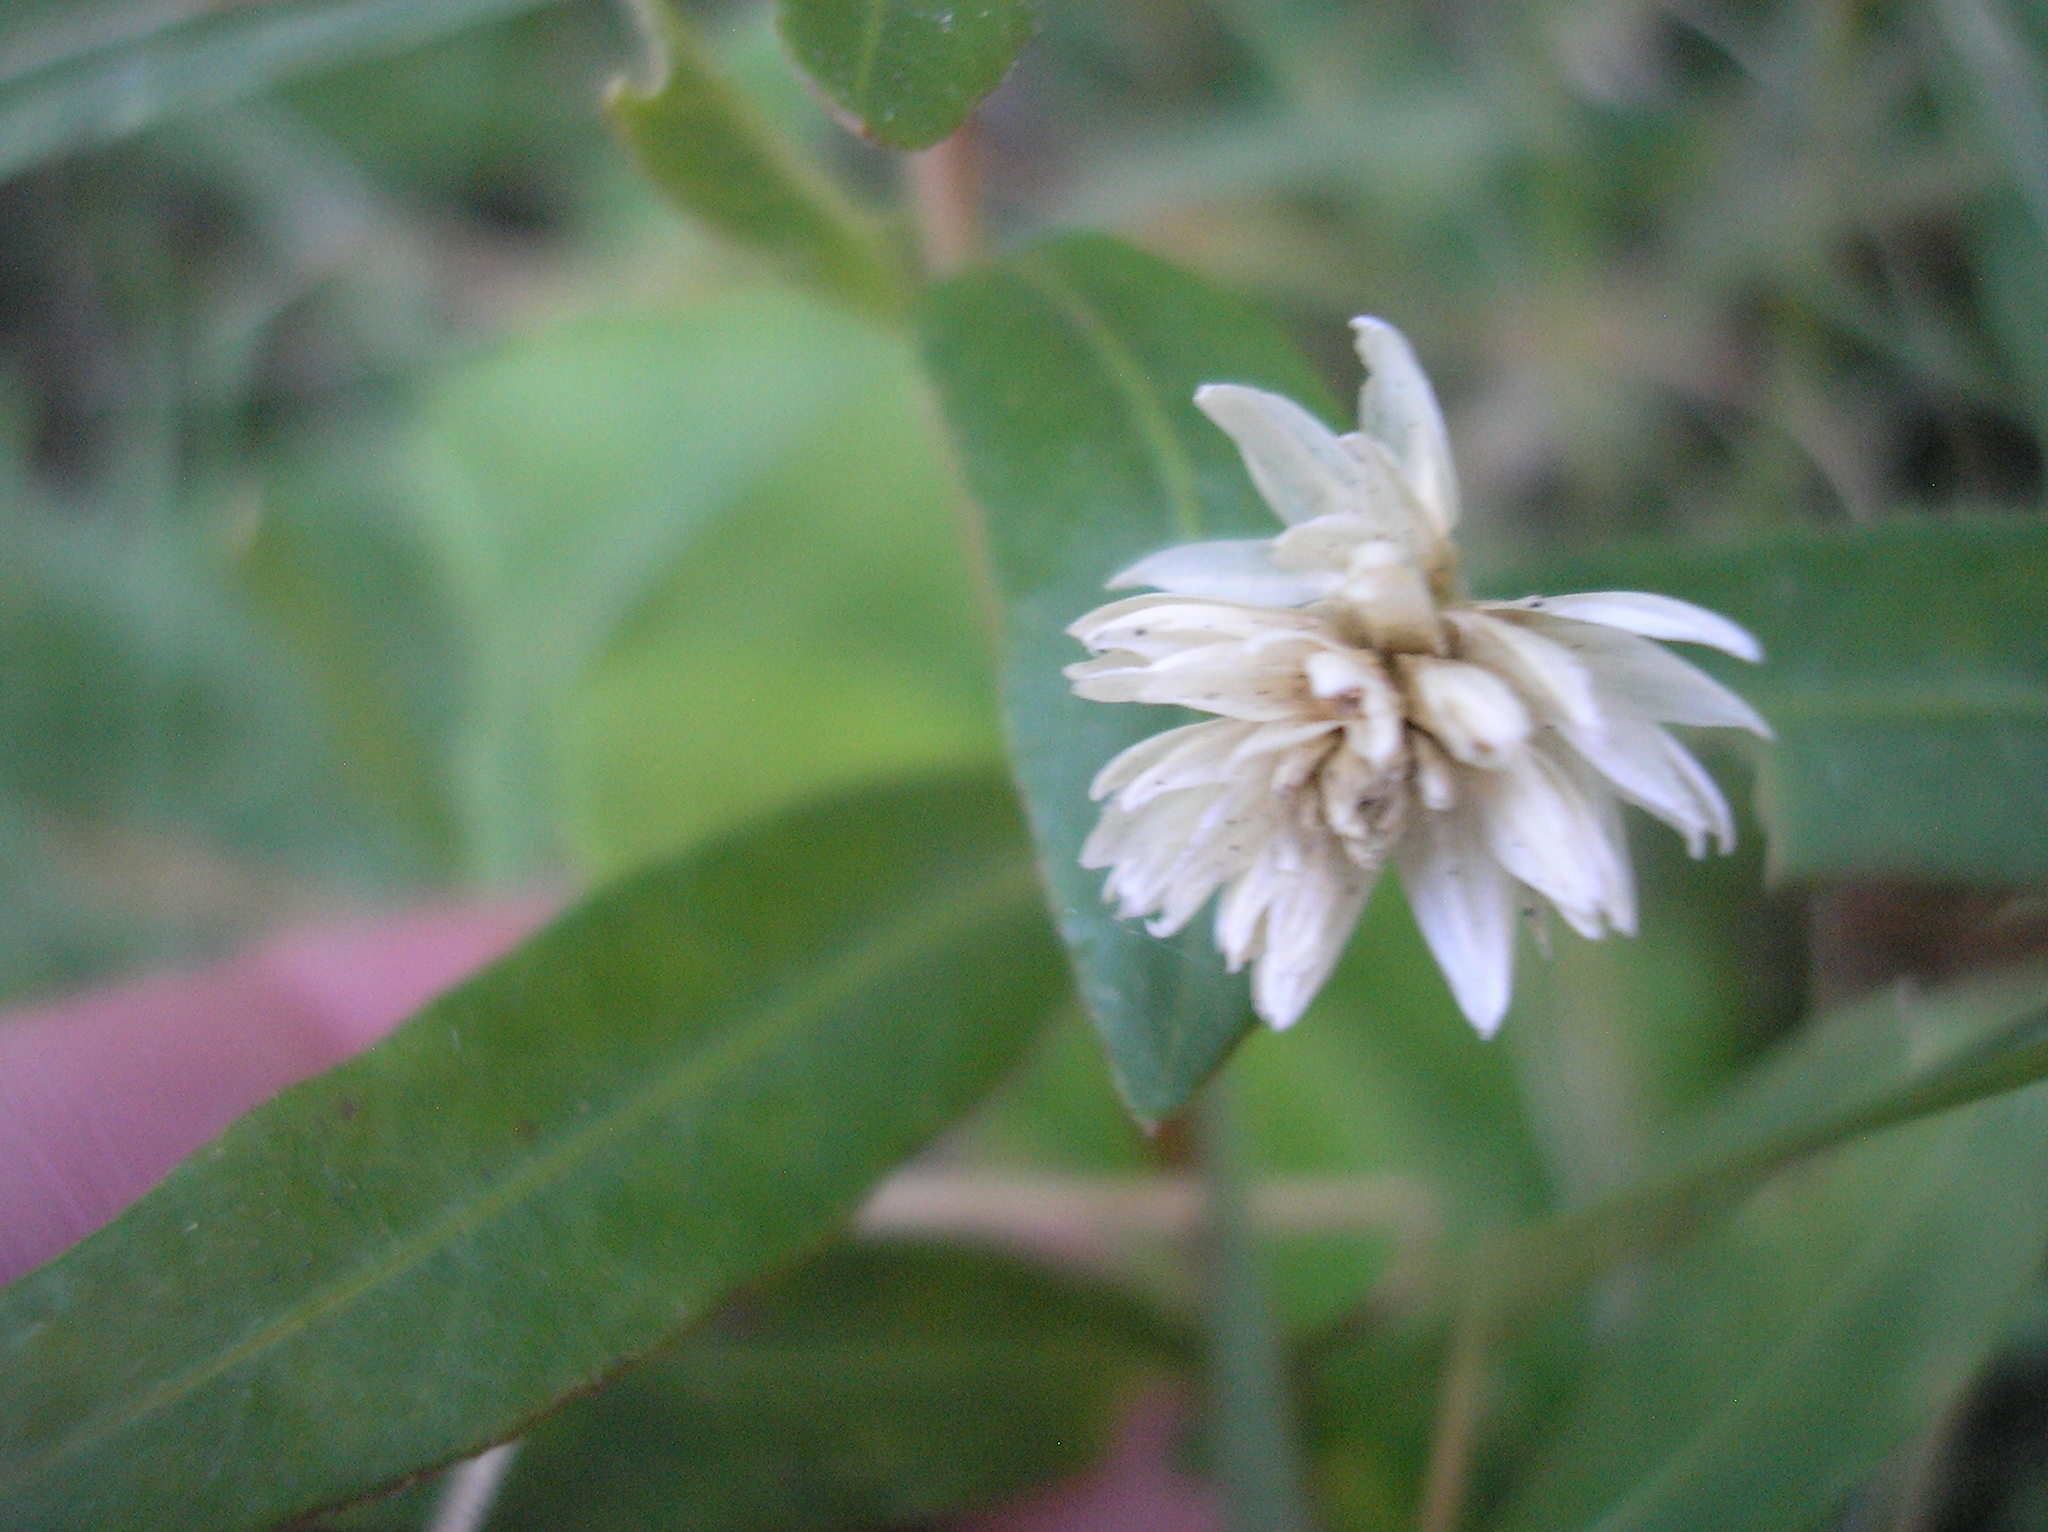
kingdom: Plantae
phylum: Tracheophyta
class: Magnoliopsida
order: Caryophyllales
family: Amaranthaceae
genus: Alternanthera
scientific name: Alternanthera philoxeroides
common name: Alligatorweed
